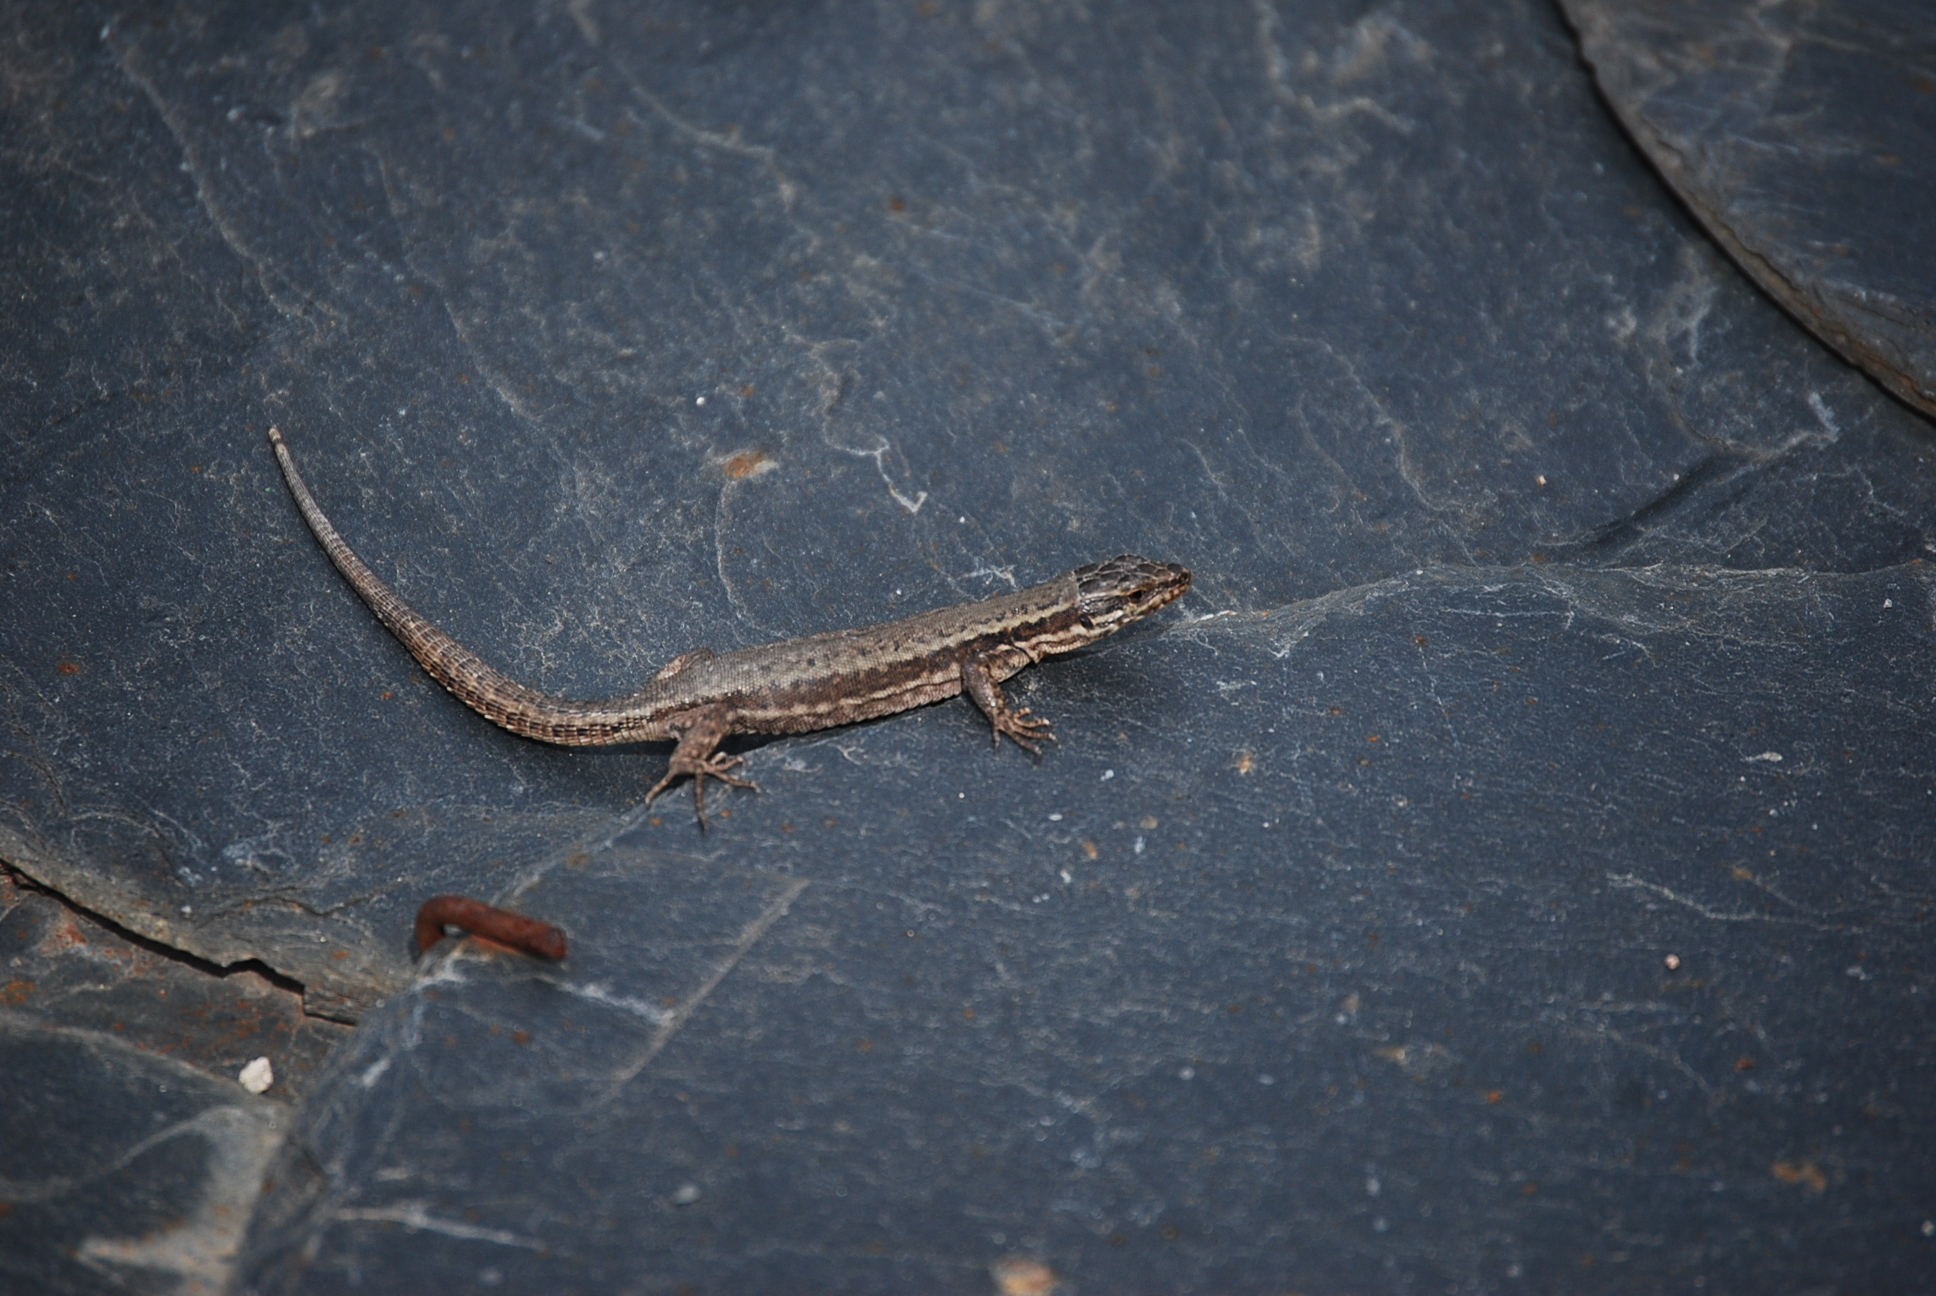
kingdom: Animalia
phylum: Chordata
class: Squamata
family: Lacertidae
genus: Podarcis
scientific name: Podarcis muralis
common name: Common wall lizard
